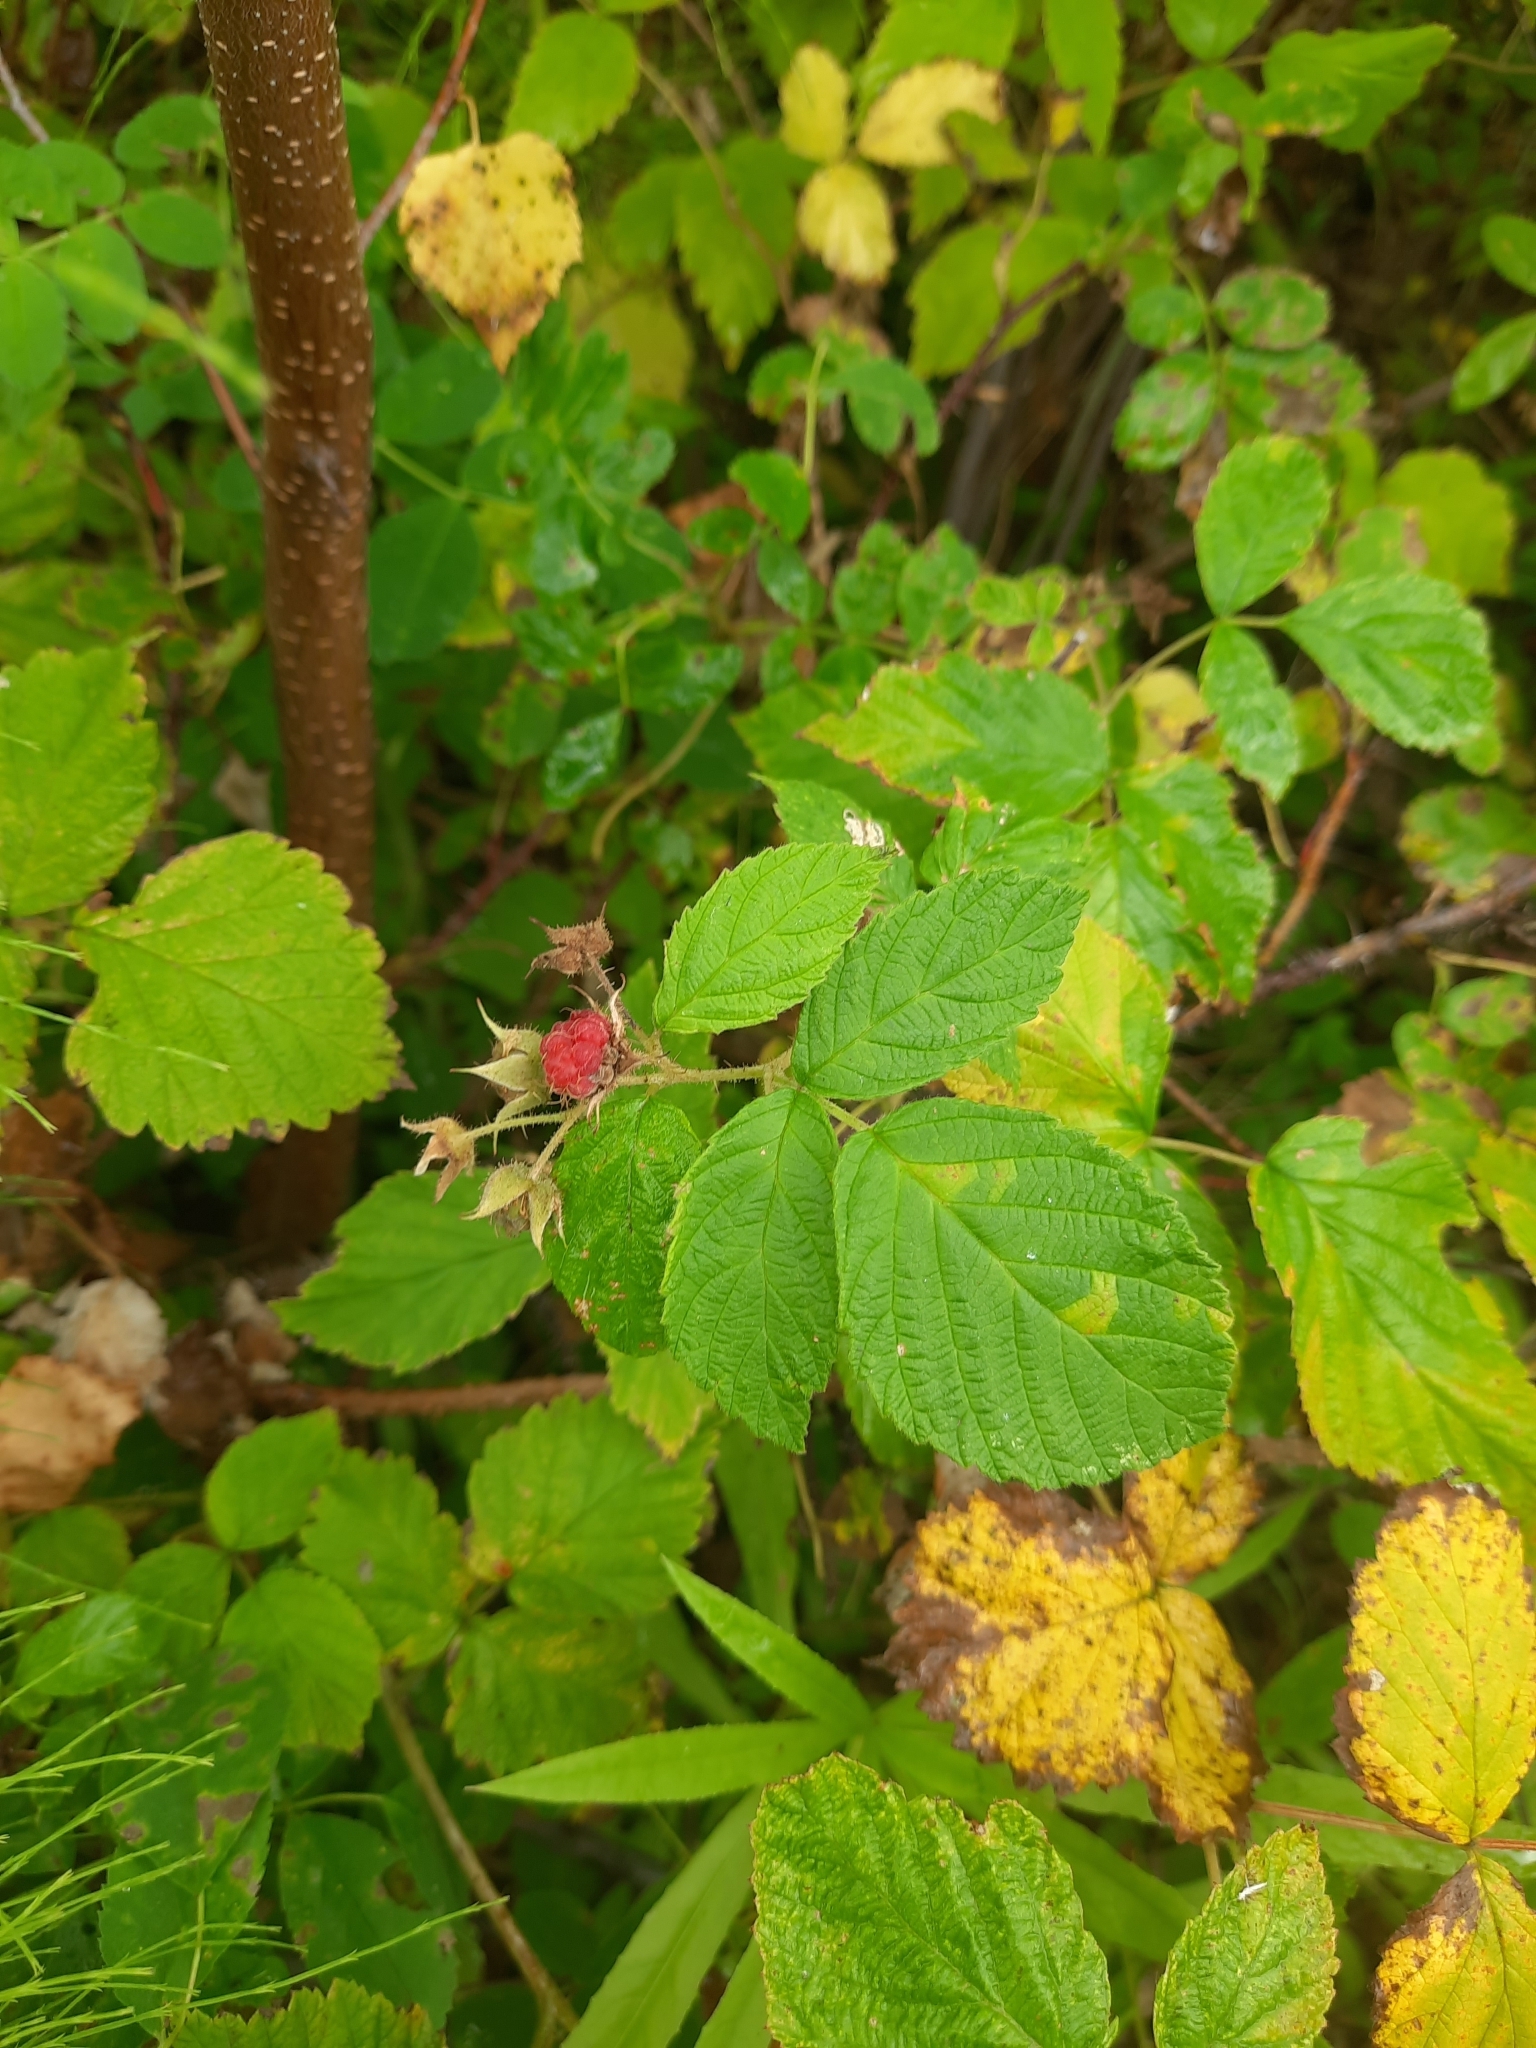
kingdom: Plantae
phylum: Tracheophyta
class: Magnoliopsida
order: Rosales
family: Rosaceae
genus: Rubus
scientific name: Rubus sachalinensis
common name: Red raspberry
